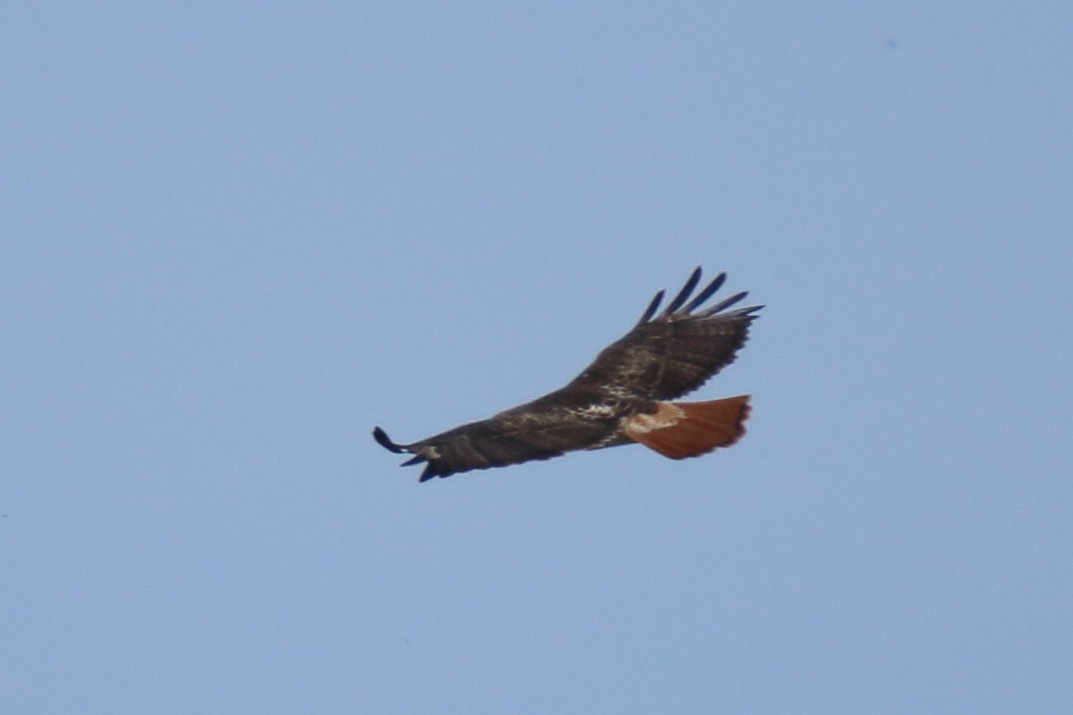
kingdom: Animalia
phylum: Chordata
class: Aves
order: Accipitriformes
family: Accipitridae
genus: Buteo
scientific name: Buteo jamaicensis
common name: Red-tailed hawk
